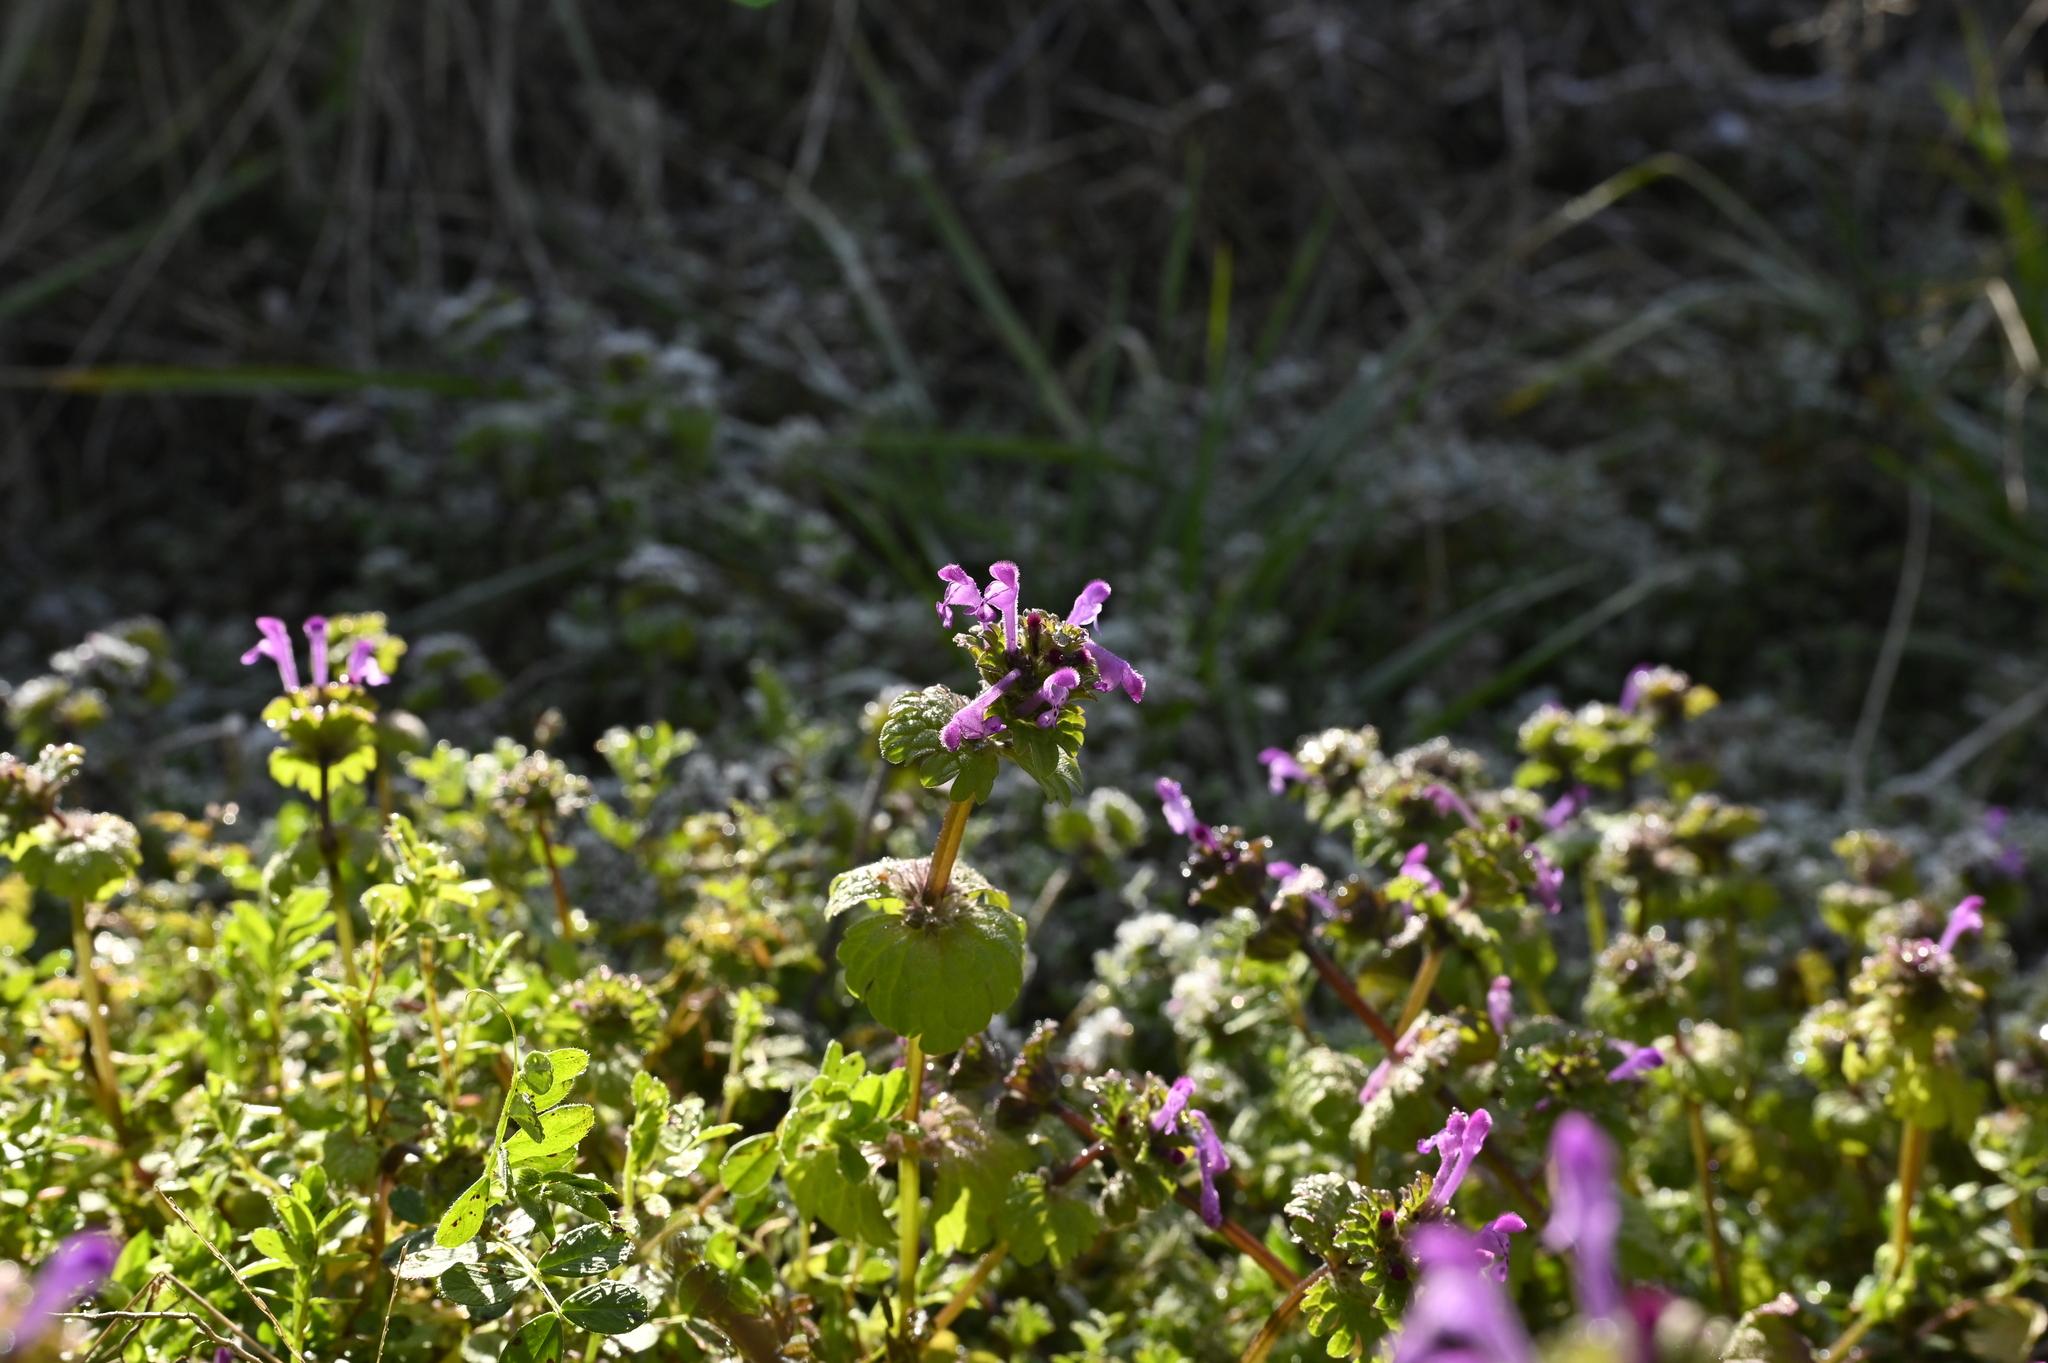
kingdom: Plantae
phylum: Tracheophyta
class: Magnoliopsida
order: Lamiales
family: Lamiaceae
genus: Lamium
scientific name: Lamium amplexicaule
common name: Henbit dead-nettle
